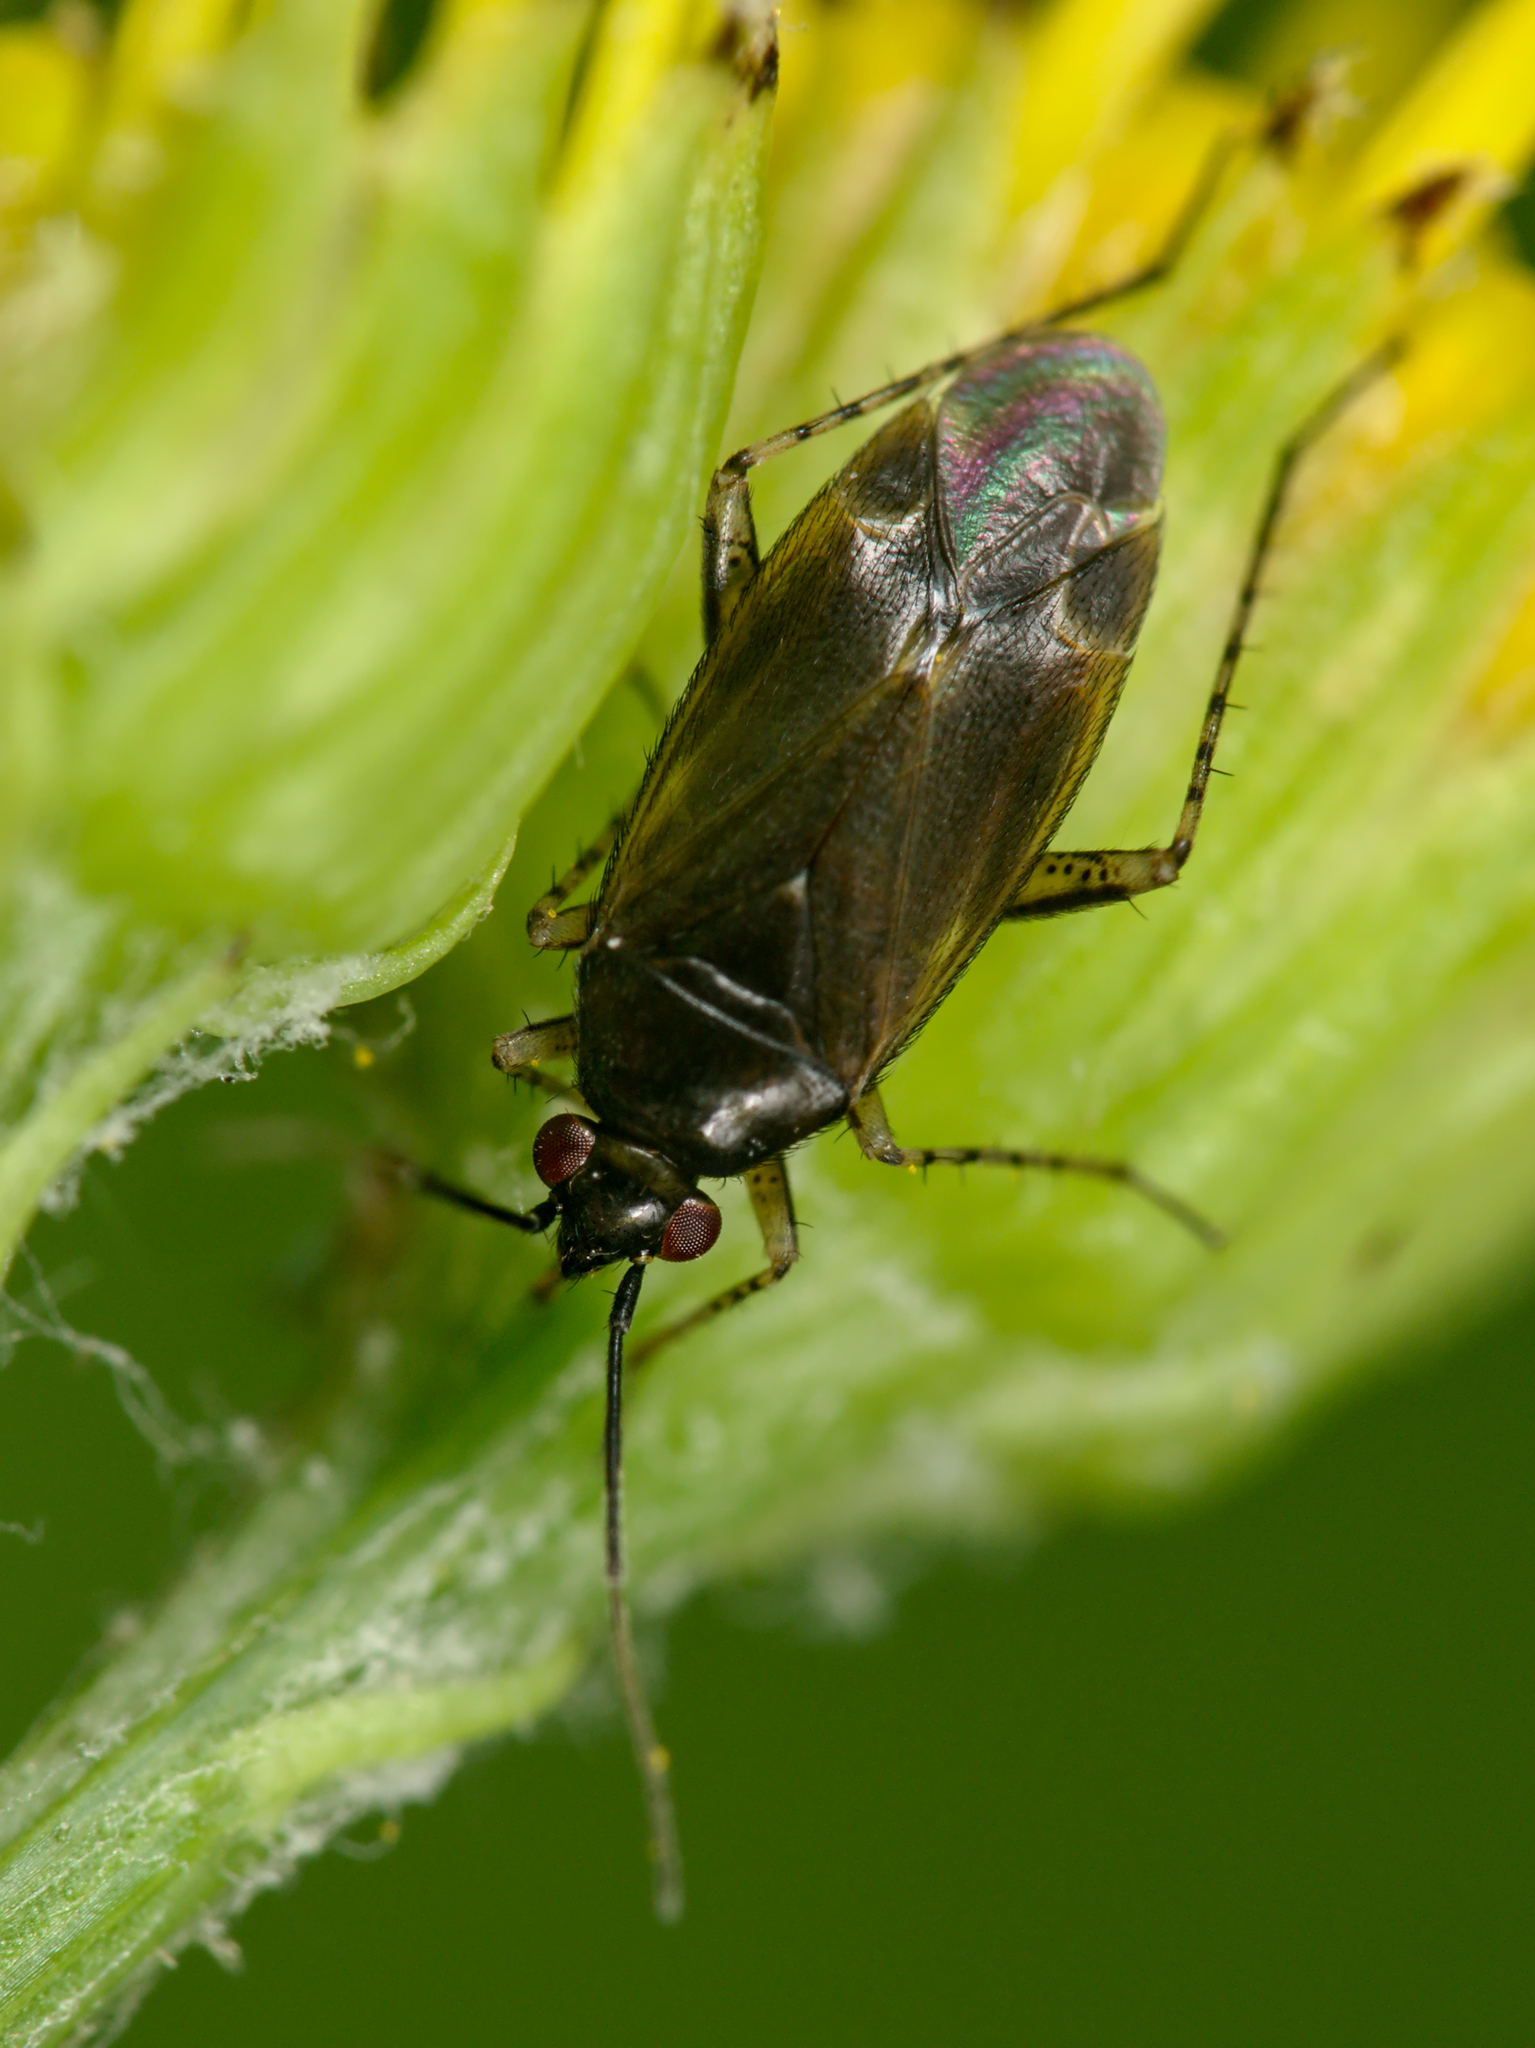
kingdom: Animalia
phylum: Arthropoda
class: Insecta
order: Hemiptera
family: Miridae
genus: Plagiognathus
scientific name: Plagiognathus arbustorum
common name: Plant bug
